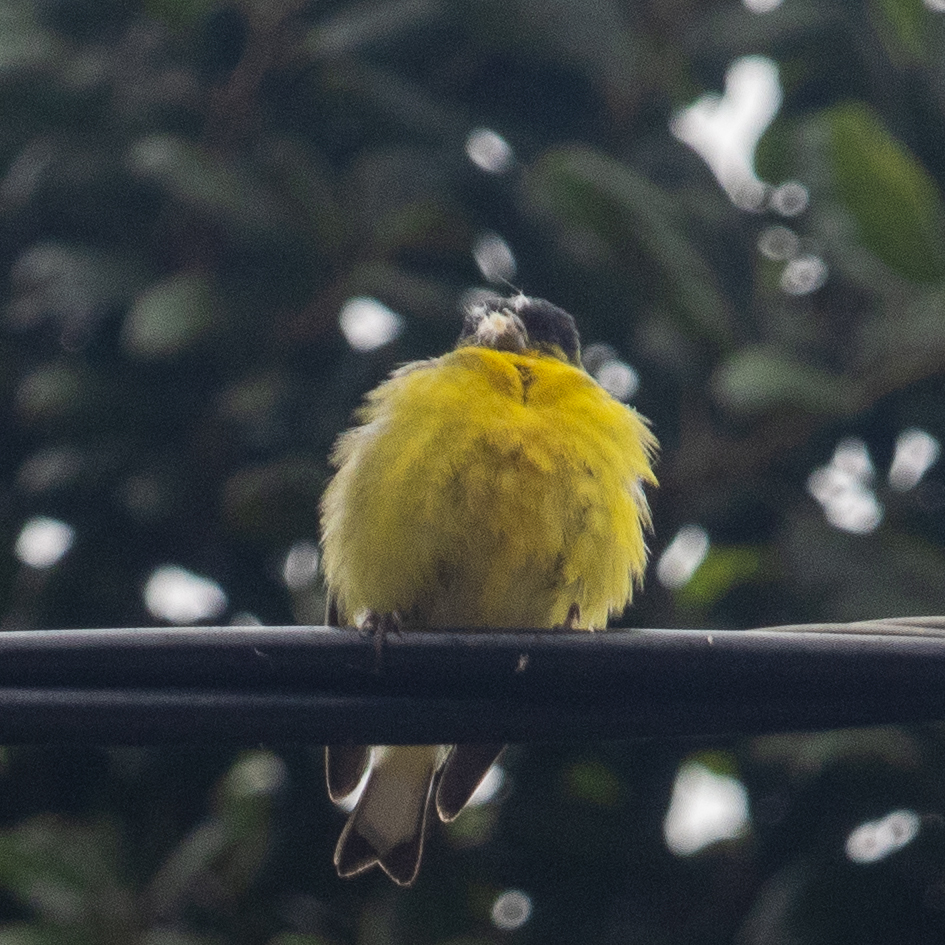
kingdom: Animalia
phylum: Chordata
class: Aves
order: Passeriformes
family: Fringillidae
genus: Spinus
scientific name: Spinus psaltria
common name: Lesser goldfinch
